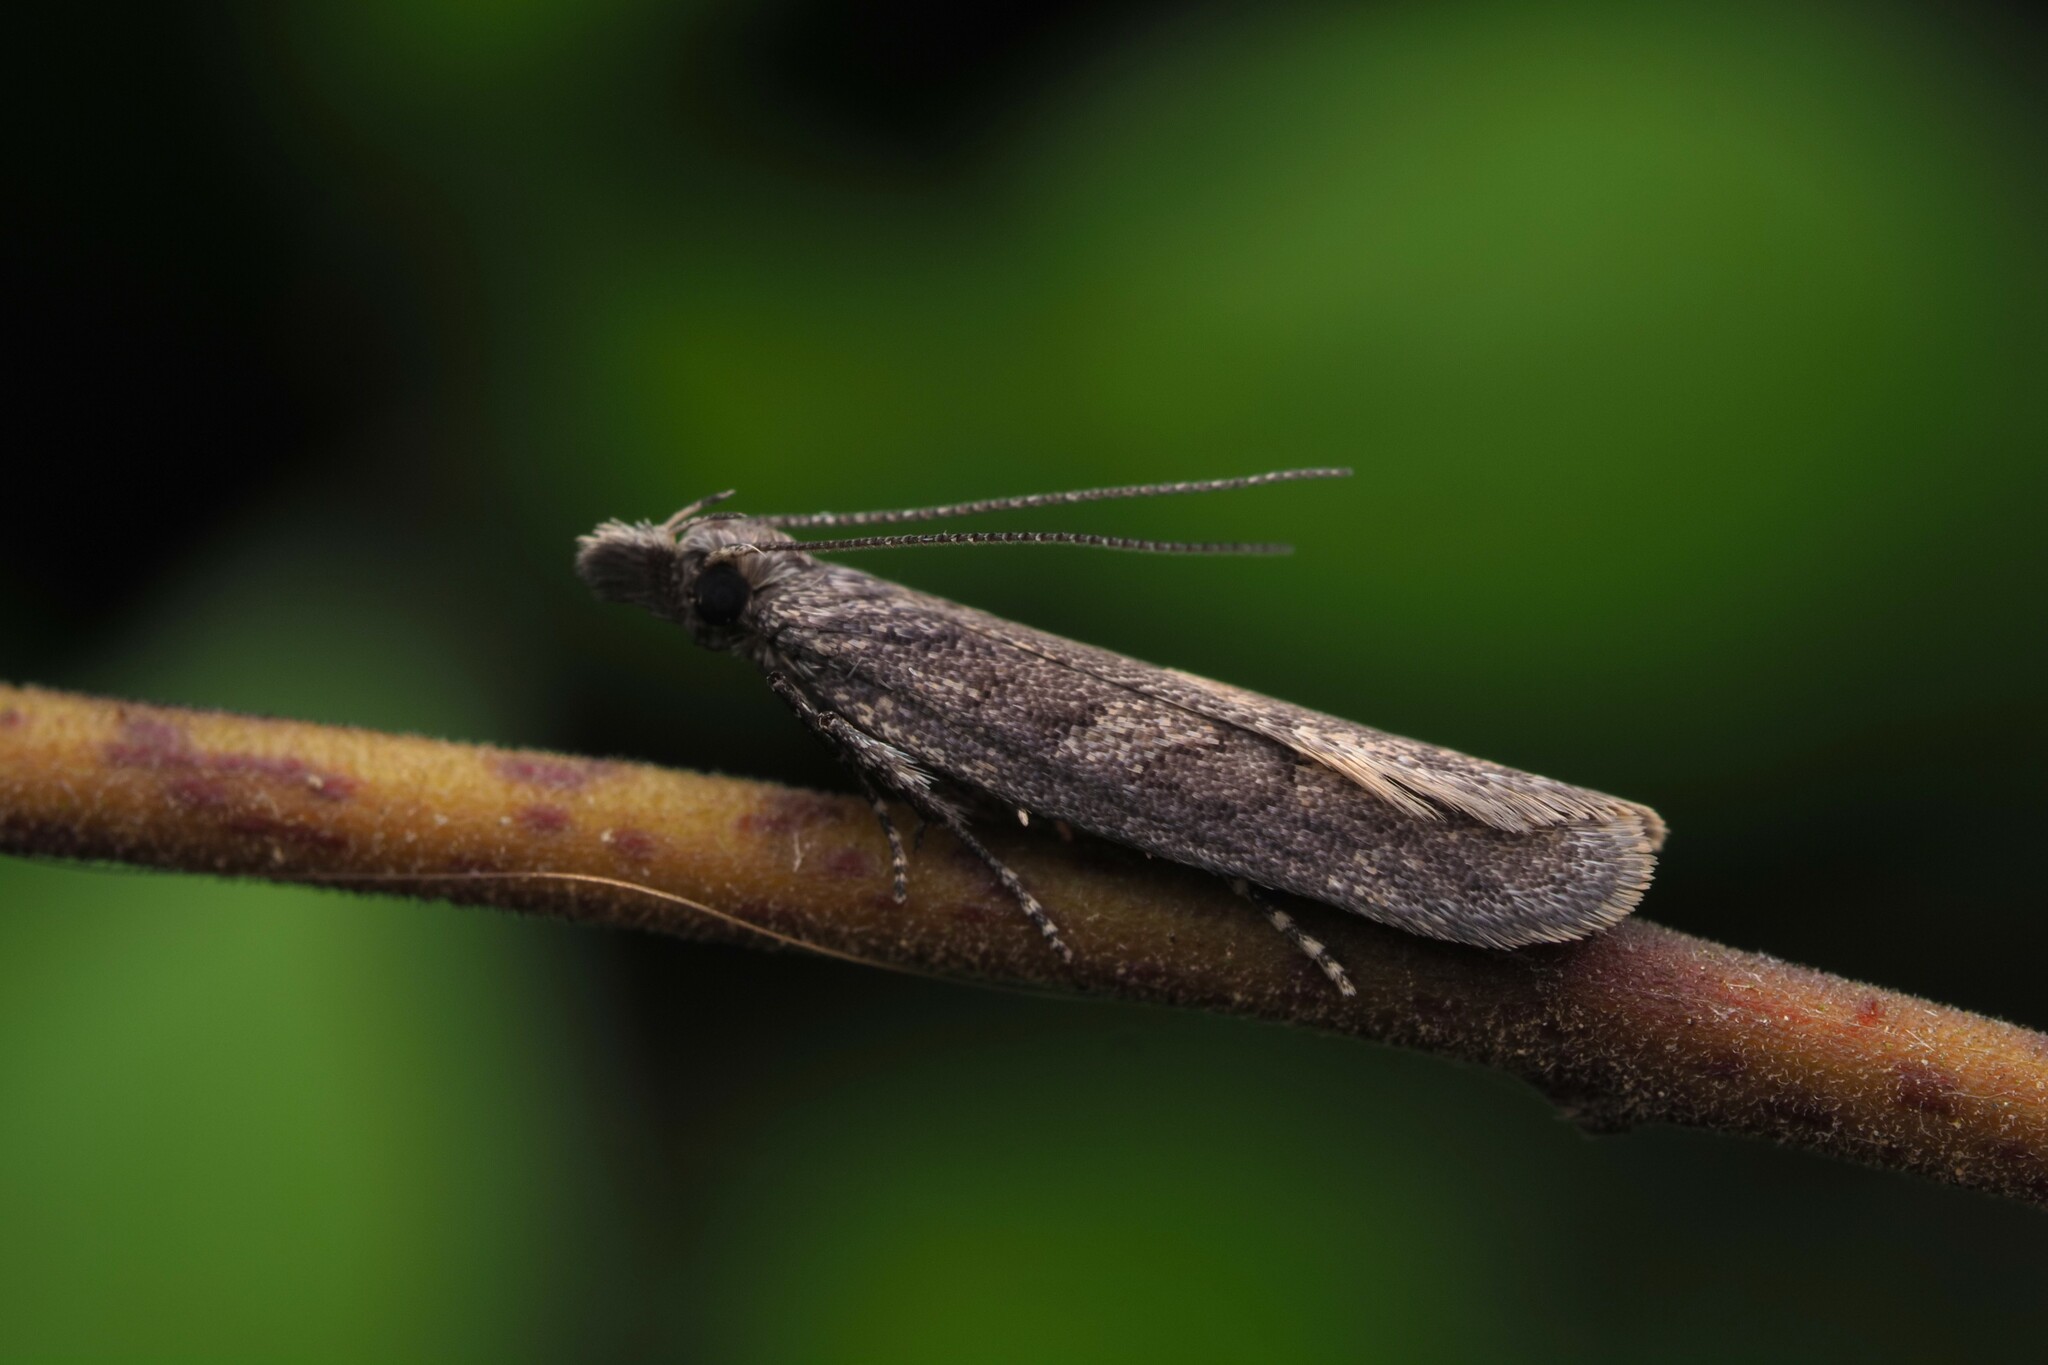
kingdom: Animalia
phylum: Arthropoda
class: Insecta
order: Lepidoptera
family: Oecophoridae
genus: Thamnosara
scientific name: Thamnosara sublitella
